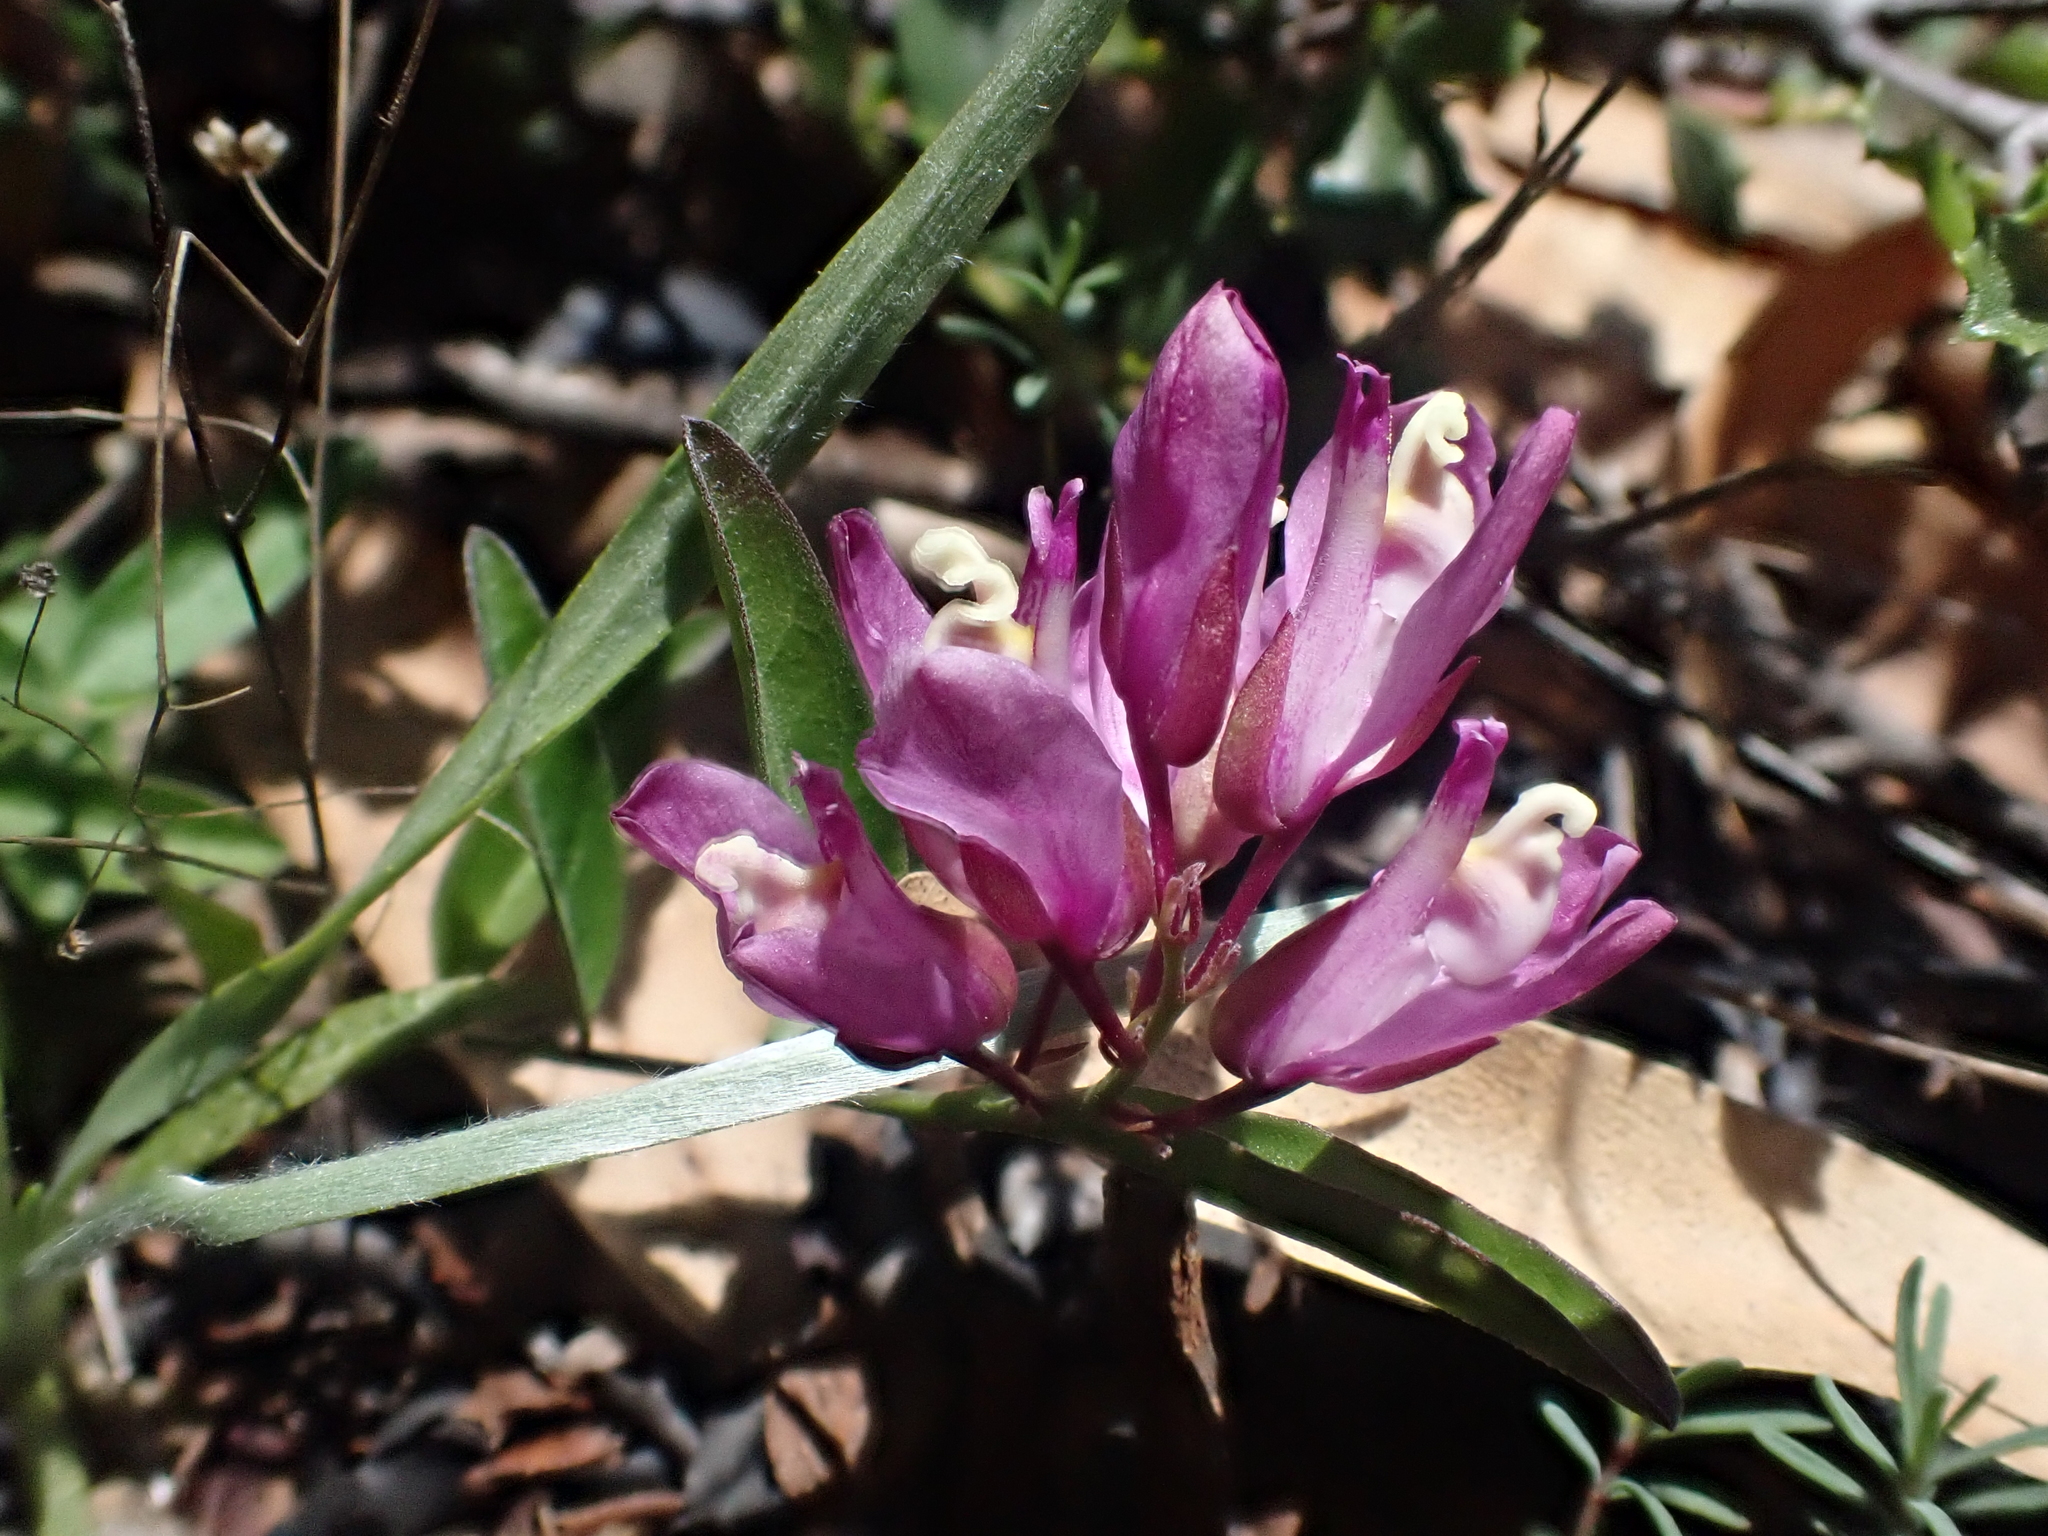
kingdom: Plantae
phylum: Tracheophyta
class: Magnoliopsida
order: Fabales
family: Polygalaceae
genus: Rhinotropis
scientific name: Rhinotropis californica
